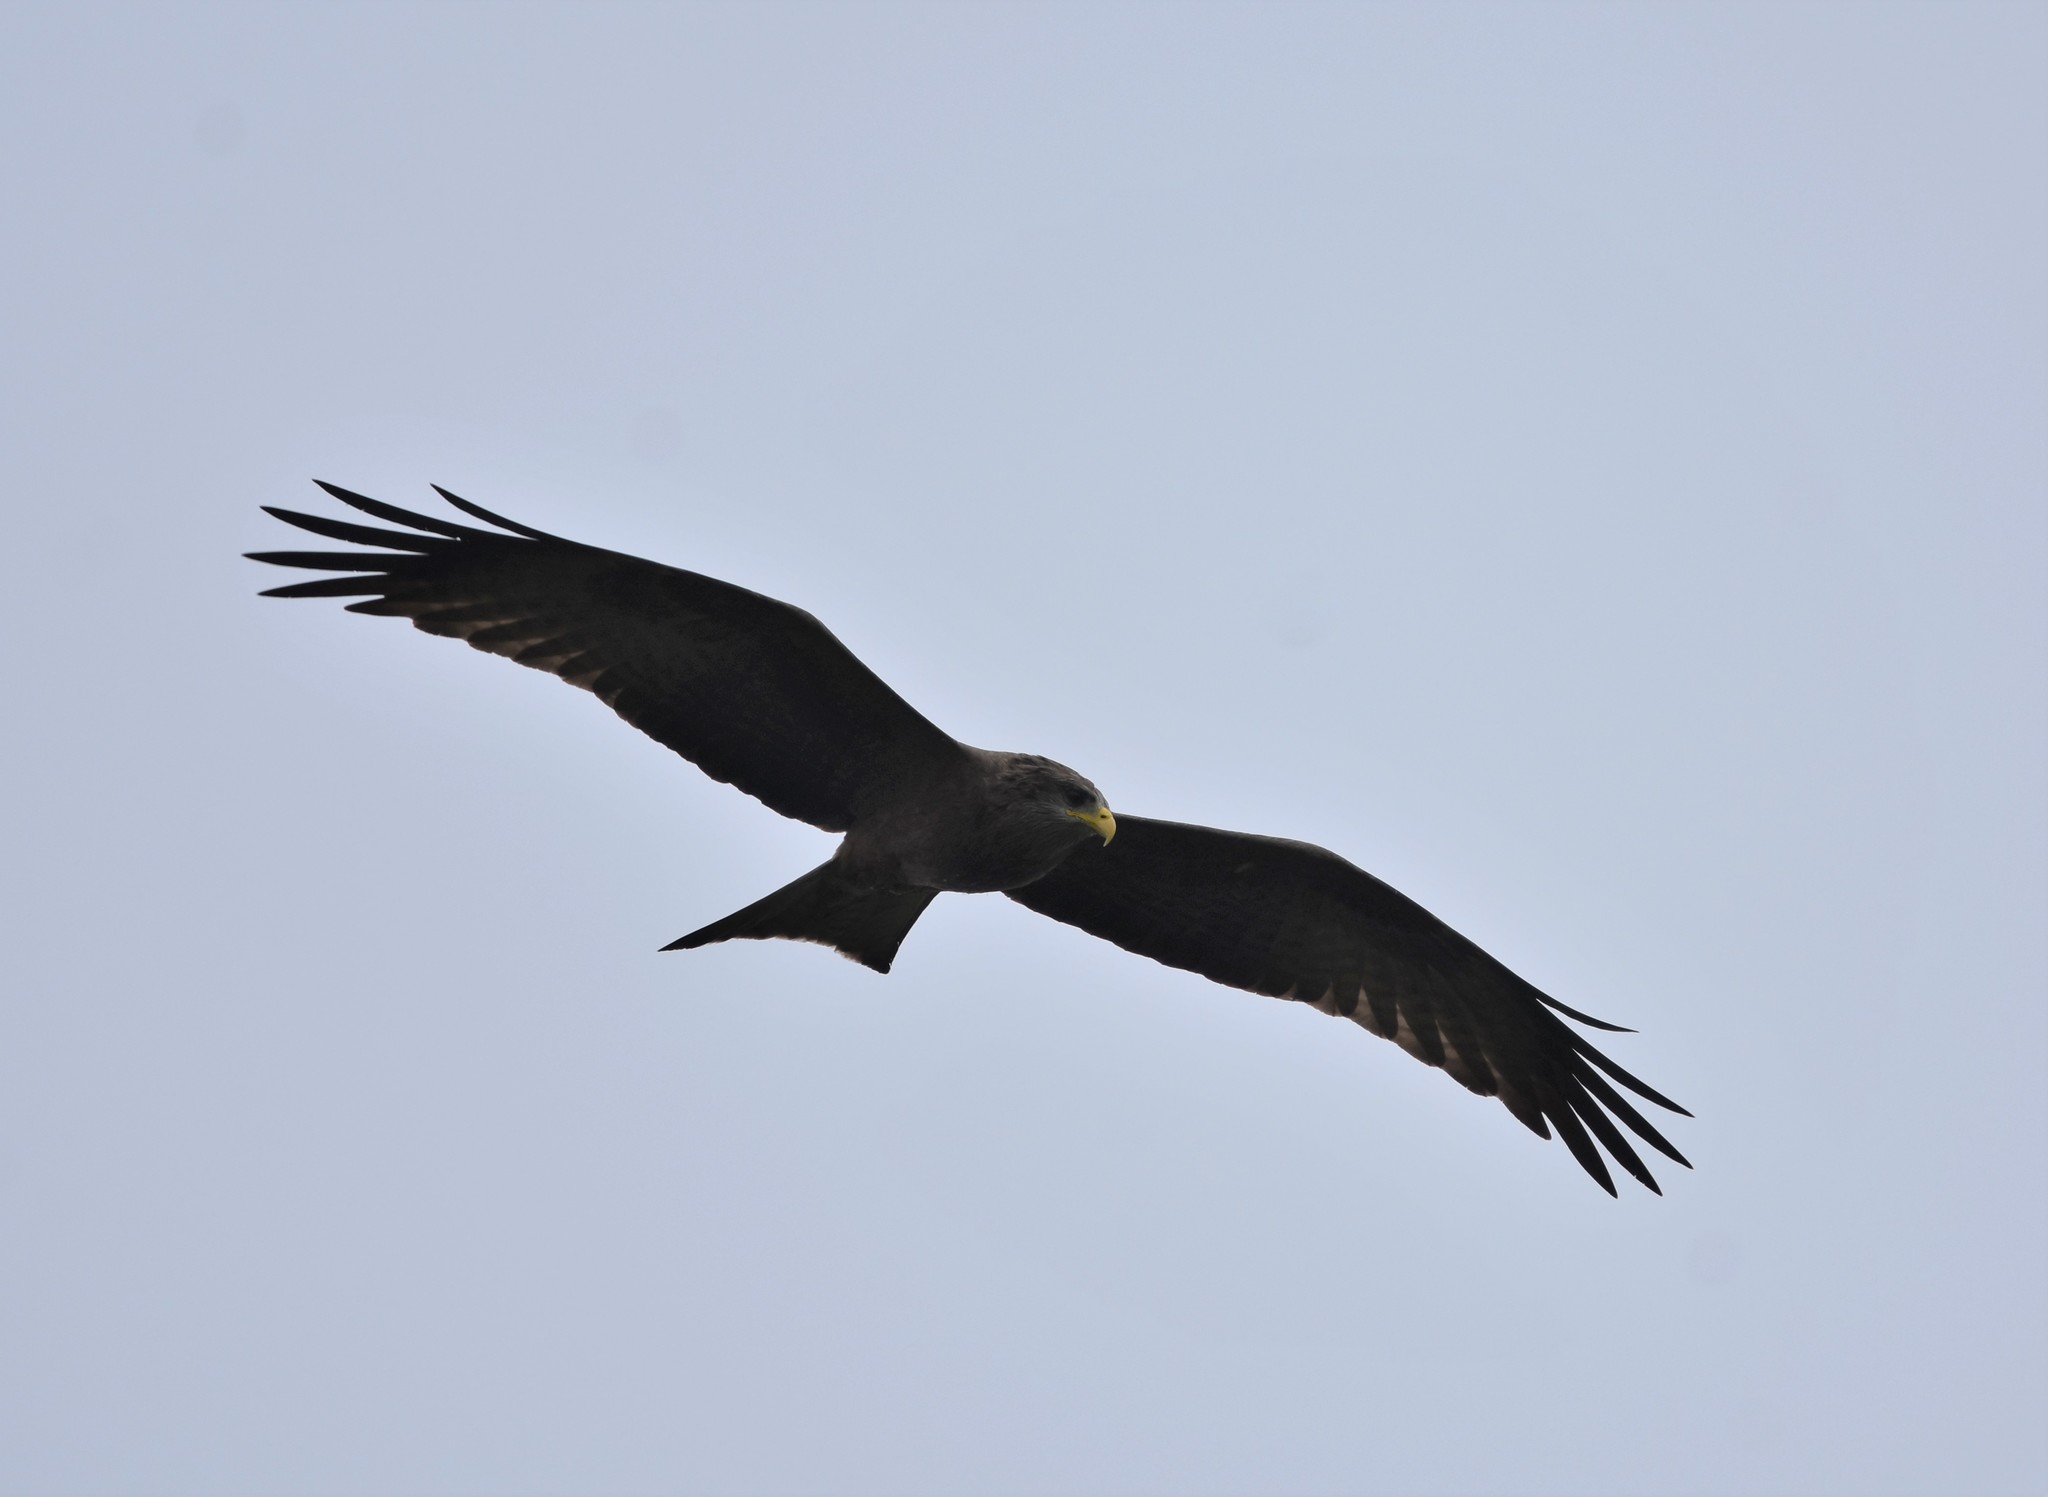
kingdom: Animalia
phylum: Chordata
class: Aves
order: Accipitriformes
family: Accipitridae
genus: Milvus
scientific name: Milvus migrans
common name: Black kite
